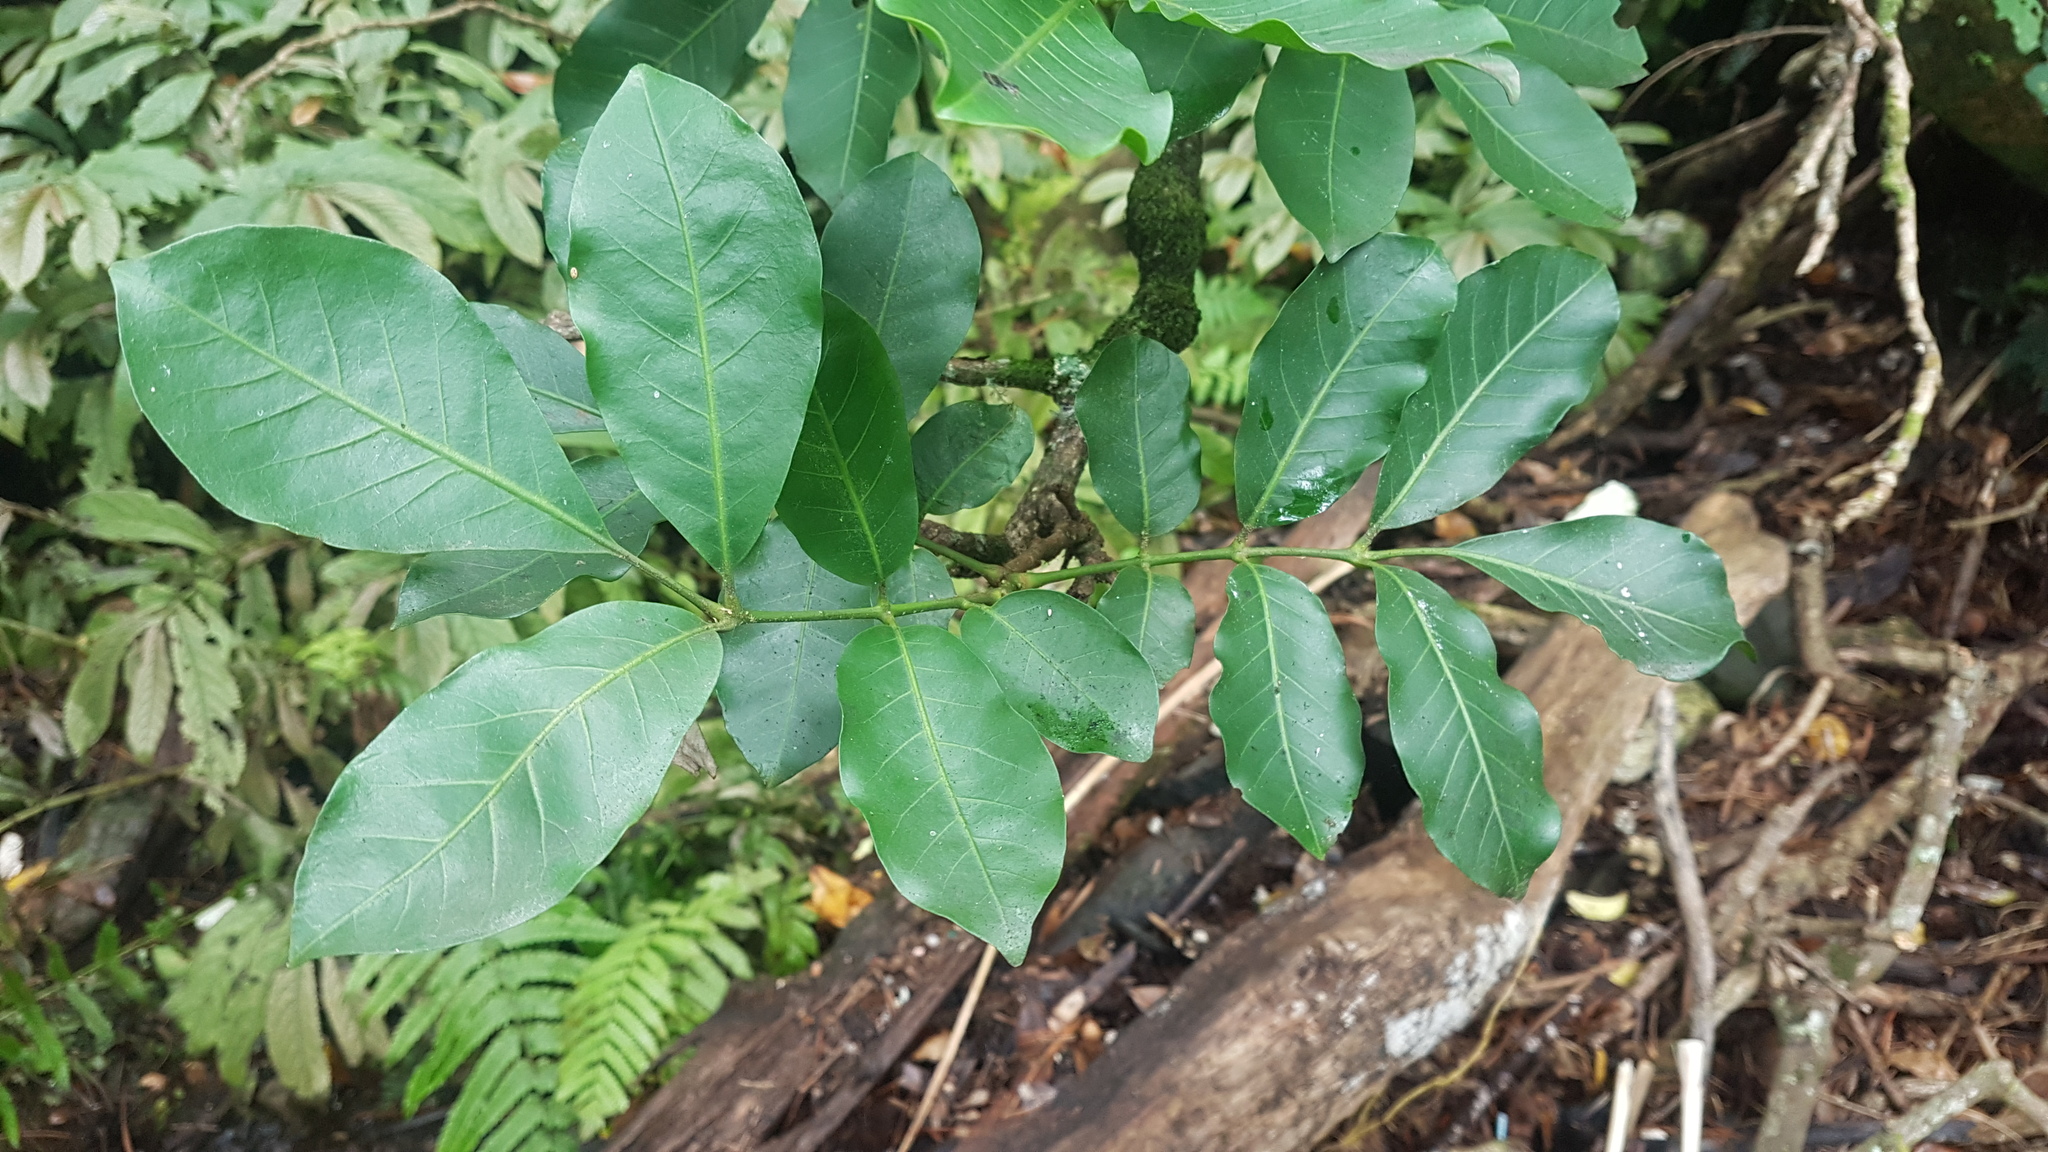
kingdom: Plantae
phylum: Tracheophyta
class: Magnoliopsida
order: Sapindales
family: Meliaceae
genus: Didymocheton
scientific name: Didymocheton spectabilis
